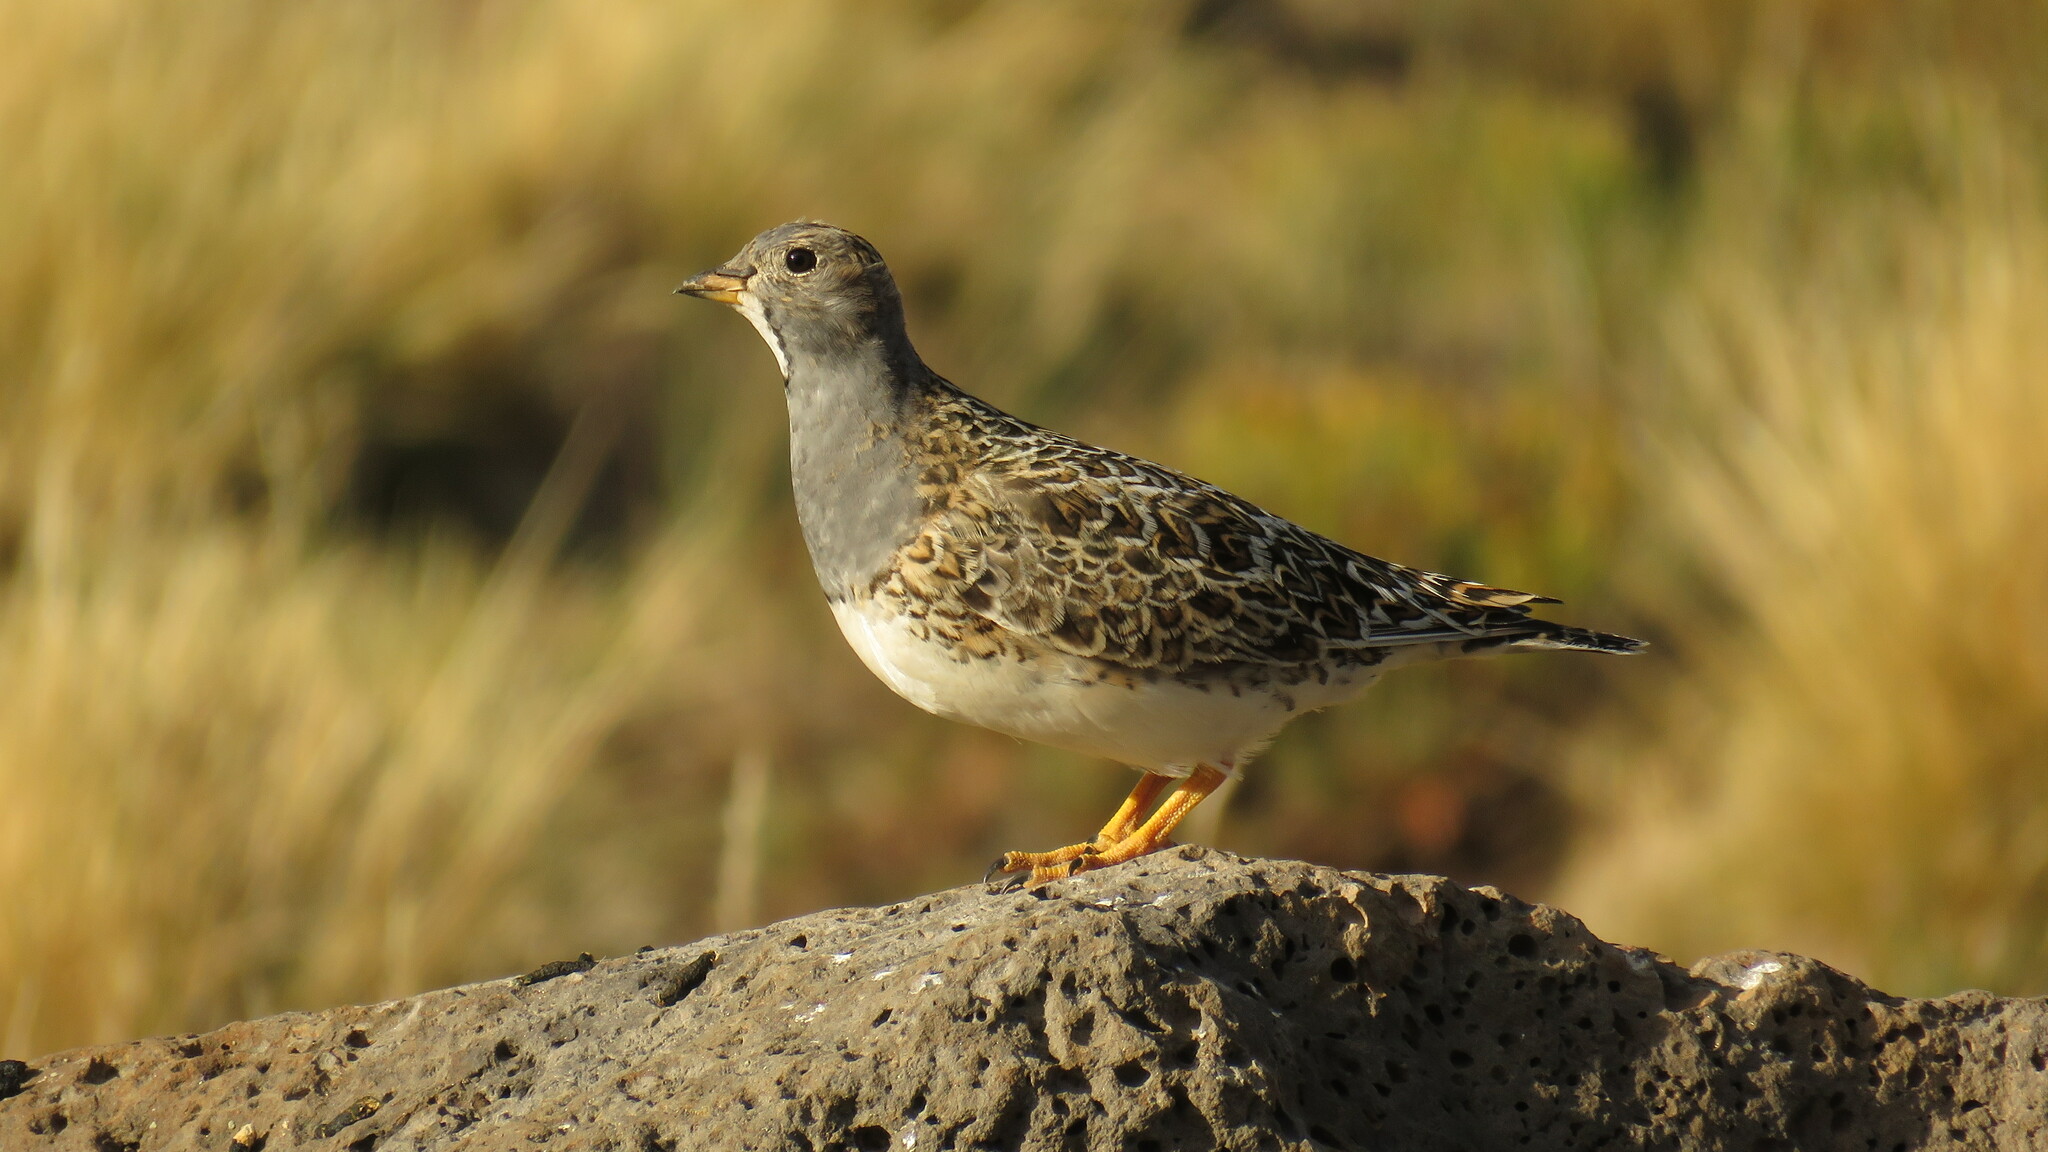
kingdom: Animalia
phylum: Chordata
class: Aves
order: Charadriiformes
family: Thinocoridae
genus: Thinocorus
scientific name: Thinocorus orbignyianus
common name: Grey-breasted seedsnipe
